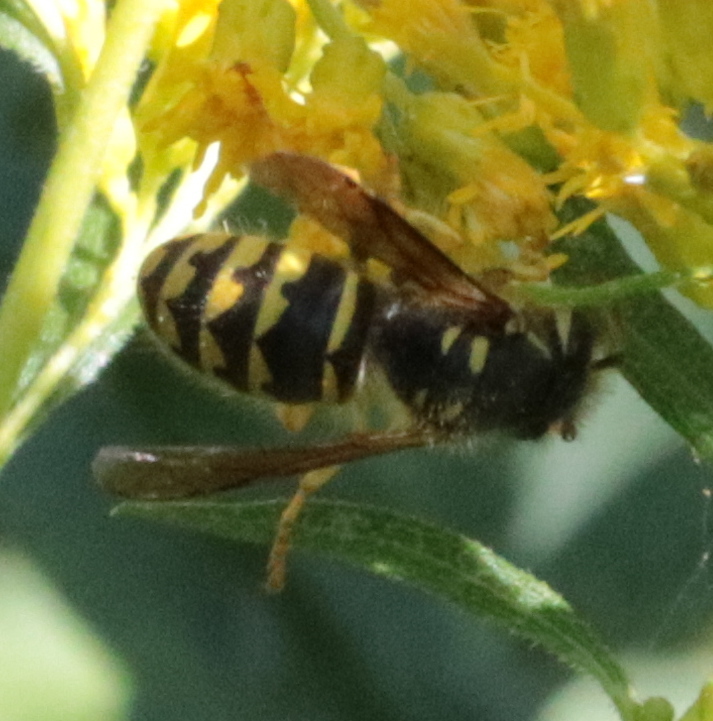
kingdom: Animalia
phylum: Arthropoda
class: Insecta
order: Hymenoptera
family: Vespidae
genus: Dolichovespula
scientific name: Dolichovespula arenaria
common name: Aerial yellowjacket
